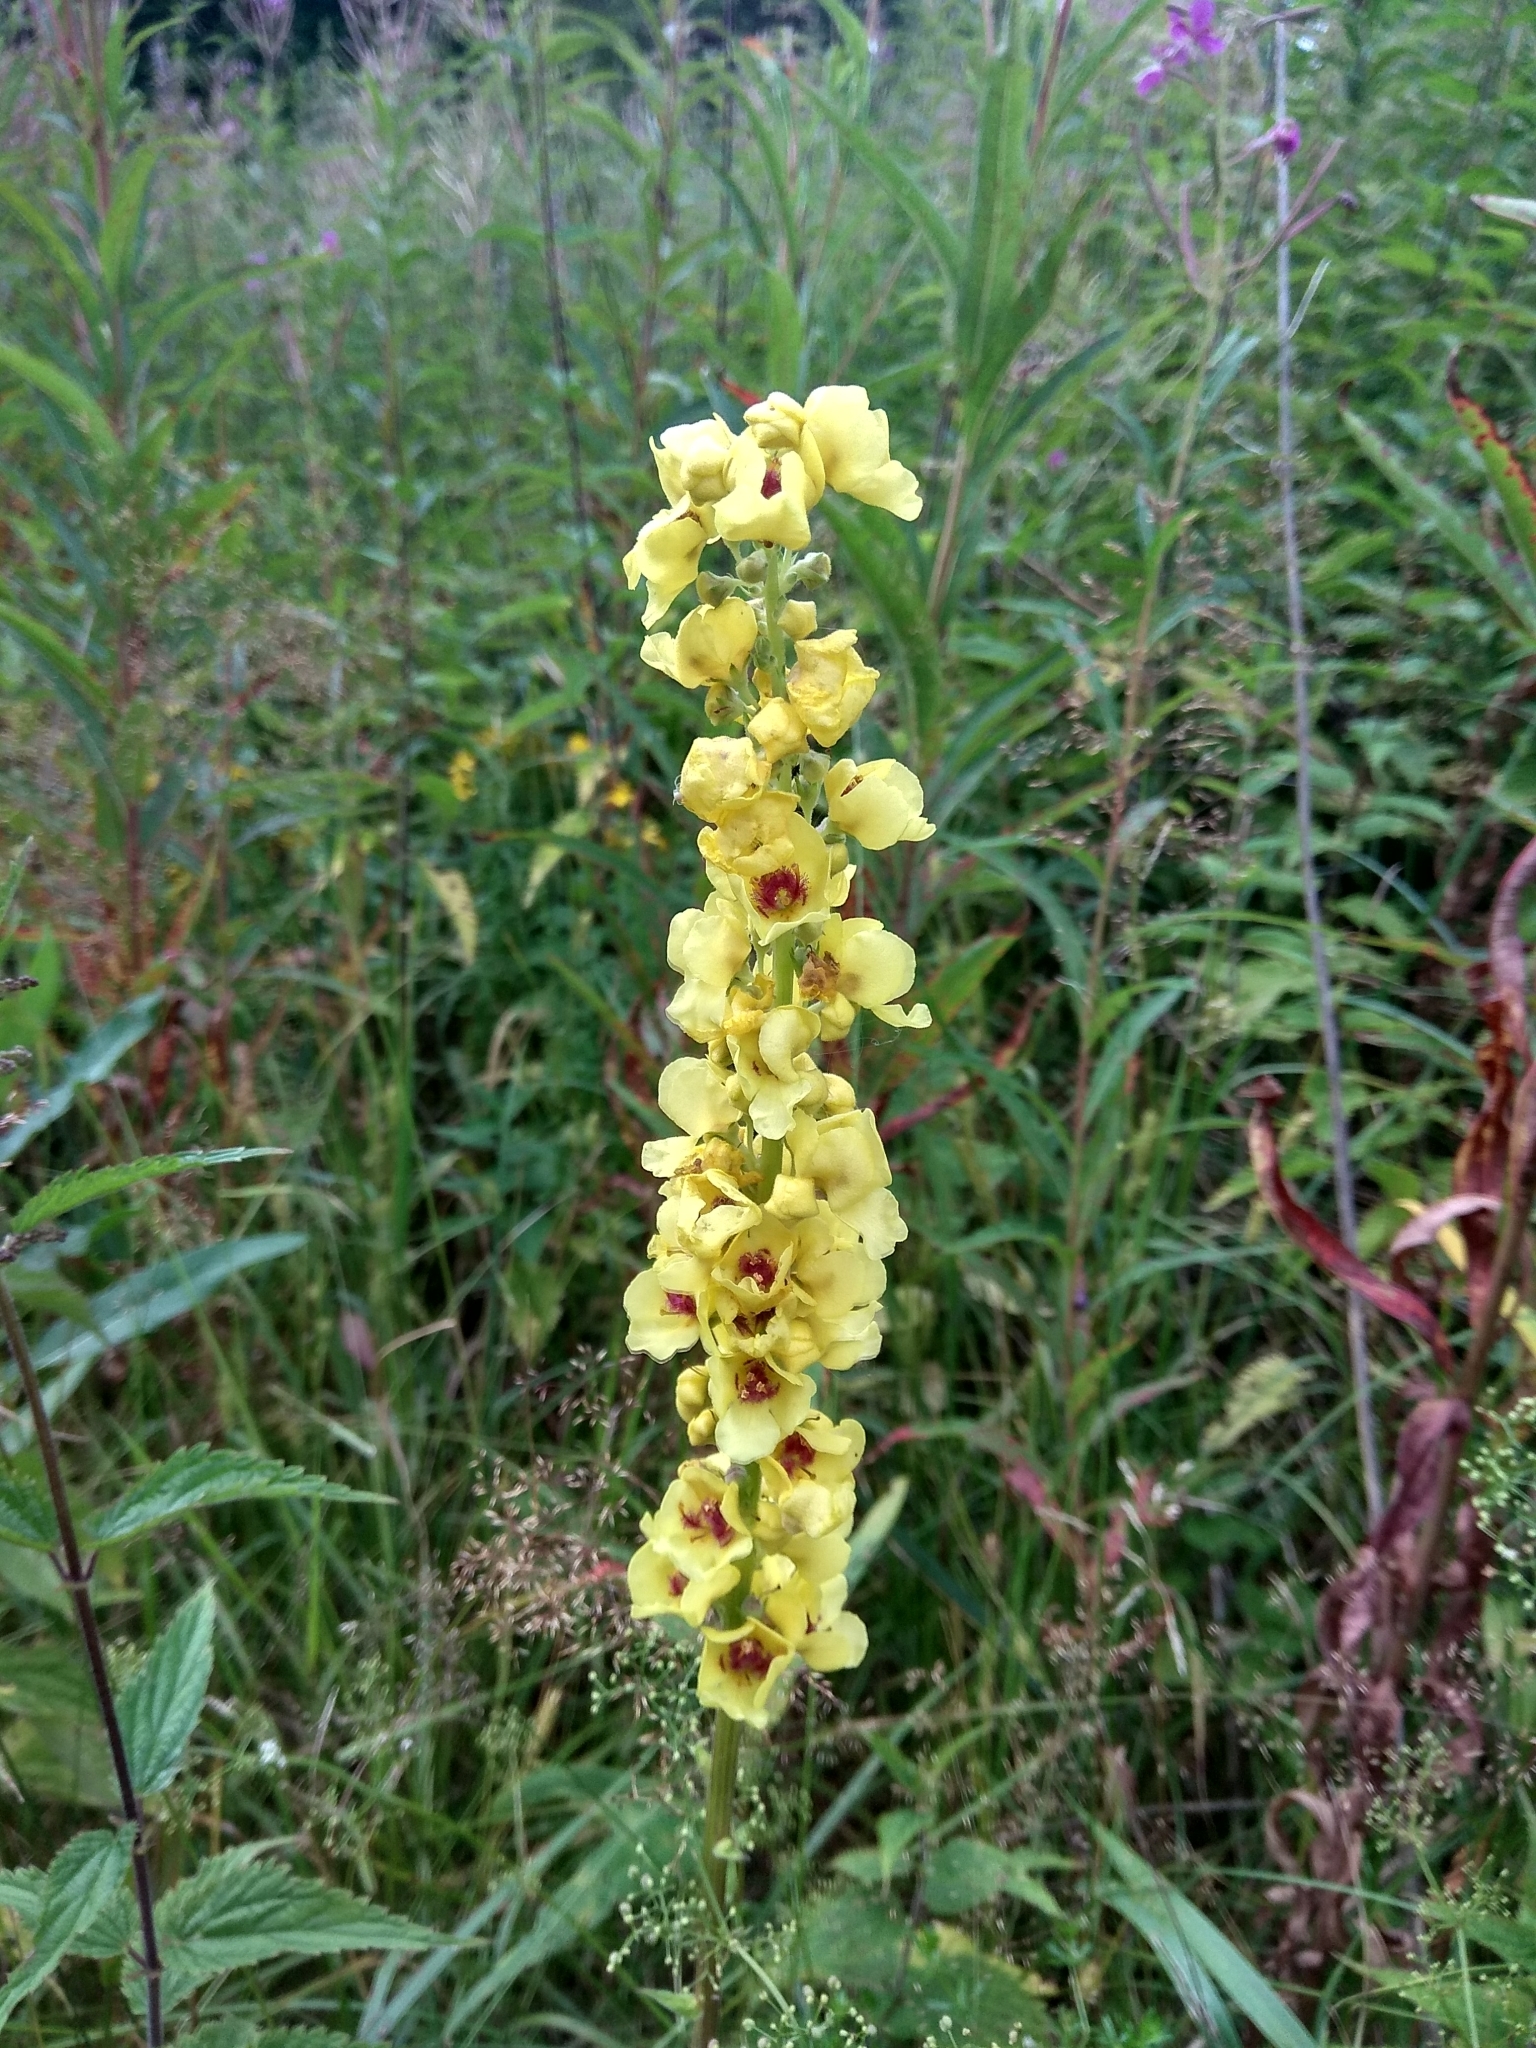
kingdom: Plantae
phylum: Tracheophyta
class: Magnoliopsida
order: Lamiales
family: Scrophulariaceae
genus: Verbascum
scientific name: Verbascum nigrum
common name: Dark mullein
